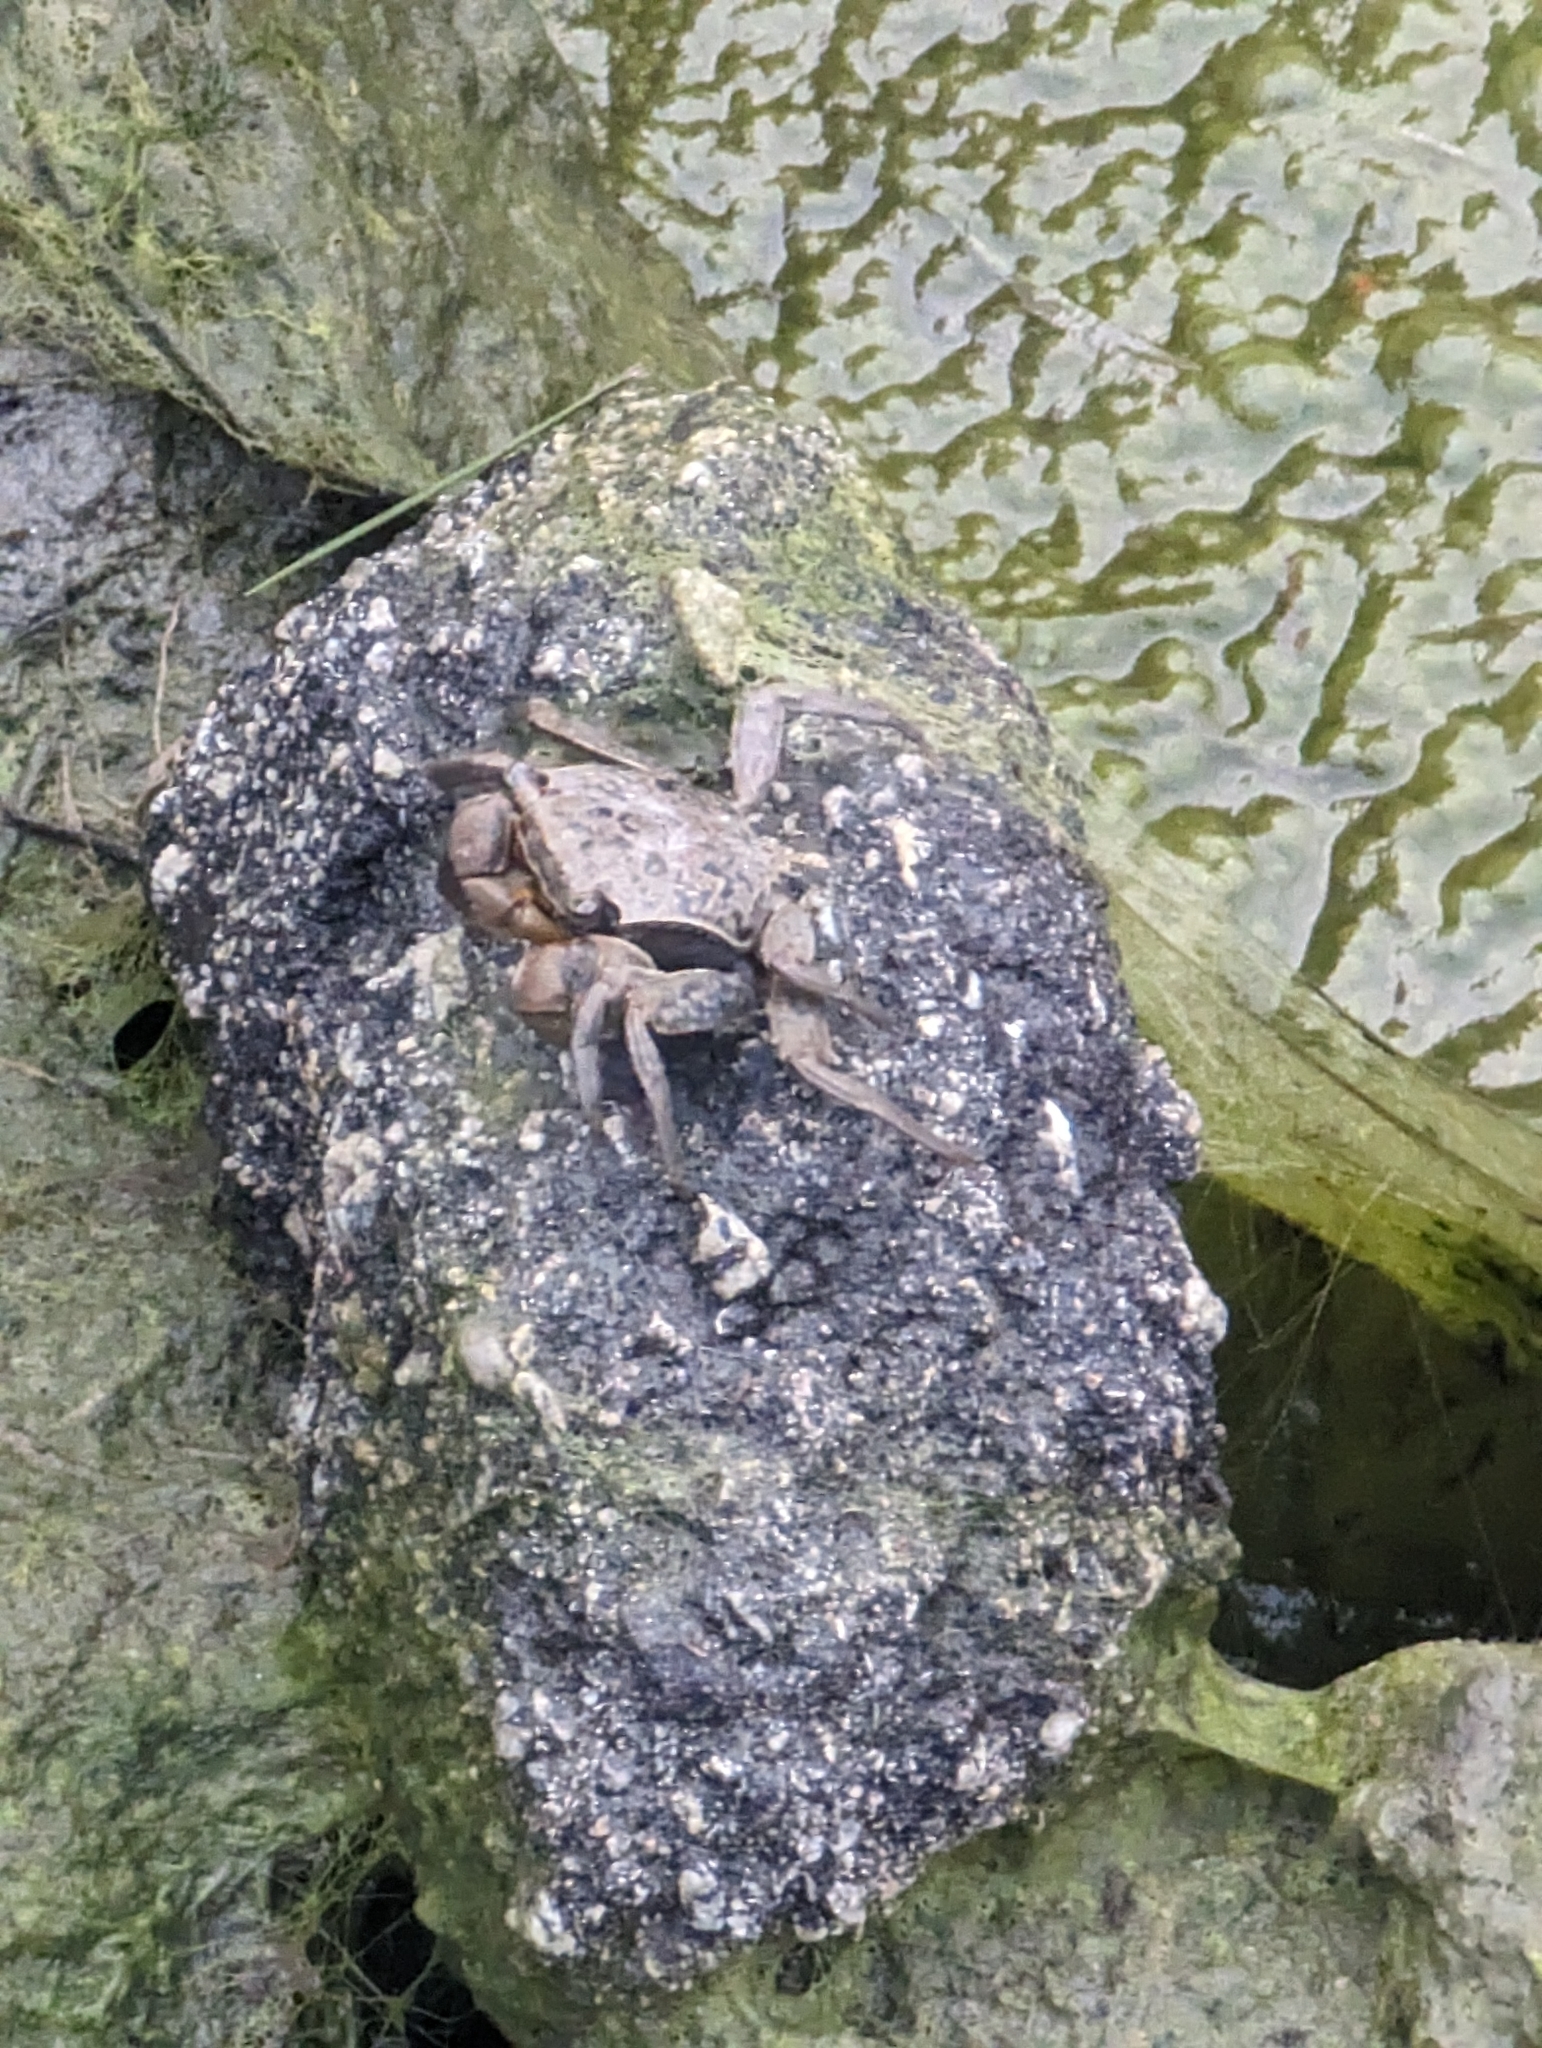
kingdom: Animalia
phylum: Arthropoda
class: Malacostraca
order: Decapoda
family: Sesarmidae
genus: Armases
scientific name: Armases cinereum
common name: Squareback marsh crab
